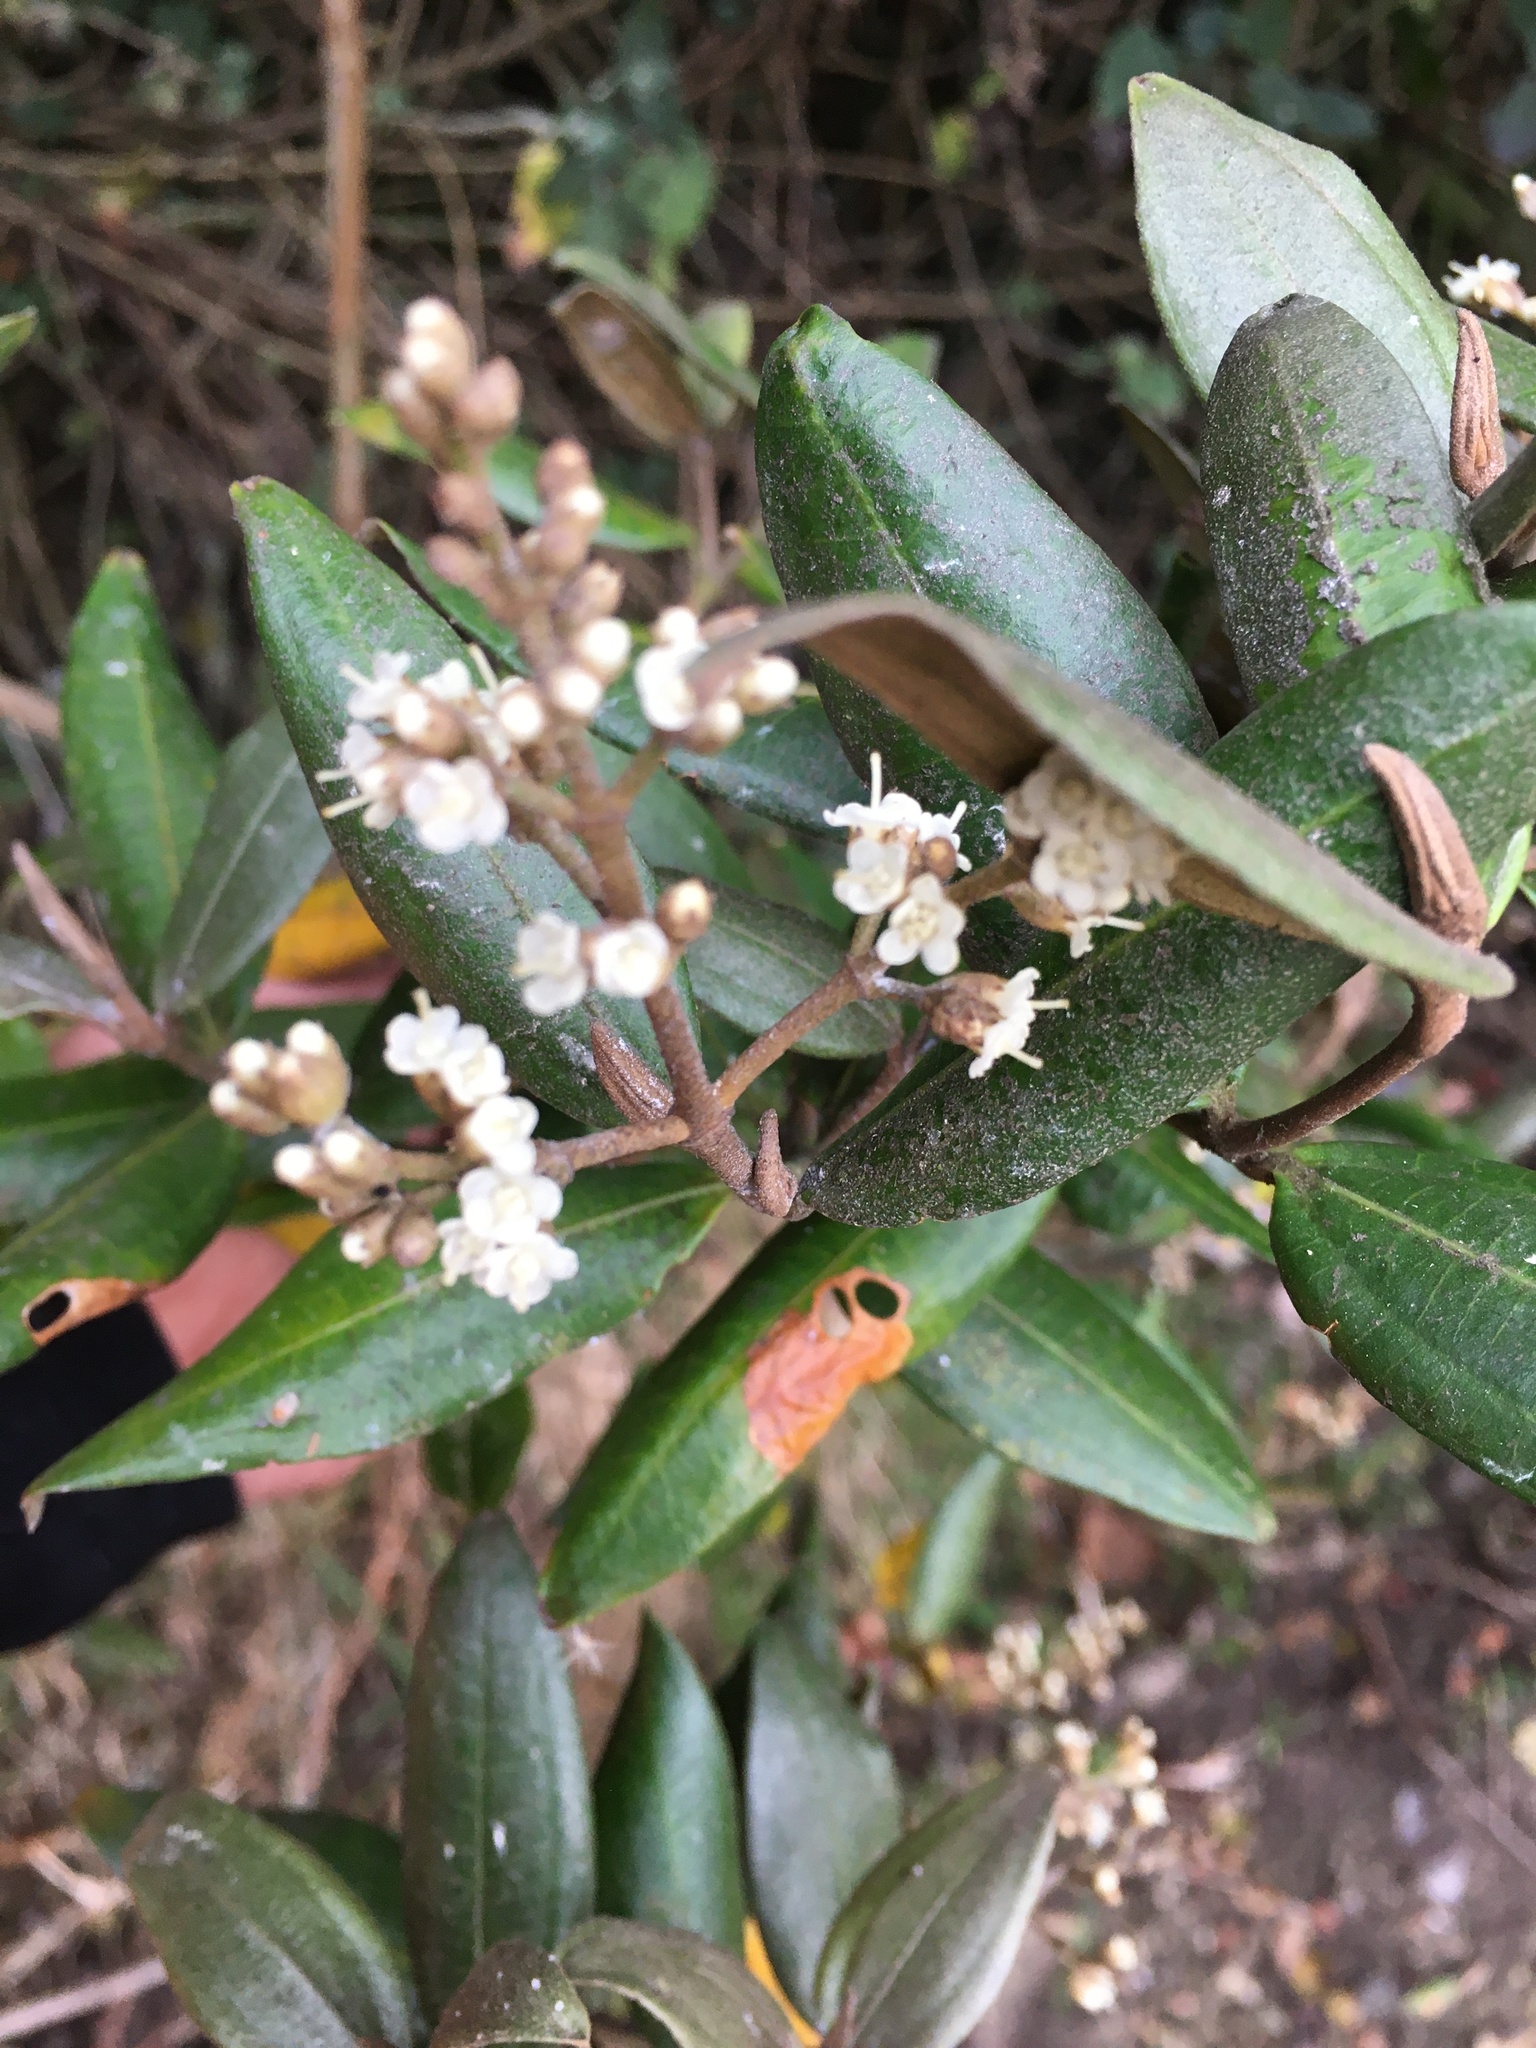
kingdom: Plantae
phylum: Tracheophyta
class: Magnoliopsida
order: Myrtales
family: Melastomataceae
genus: Miconia
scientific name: Miconia squamulosa
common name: Squamulose maya
